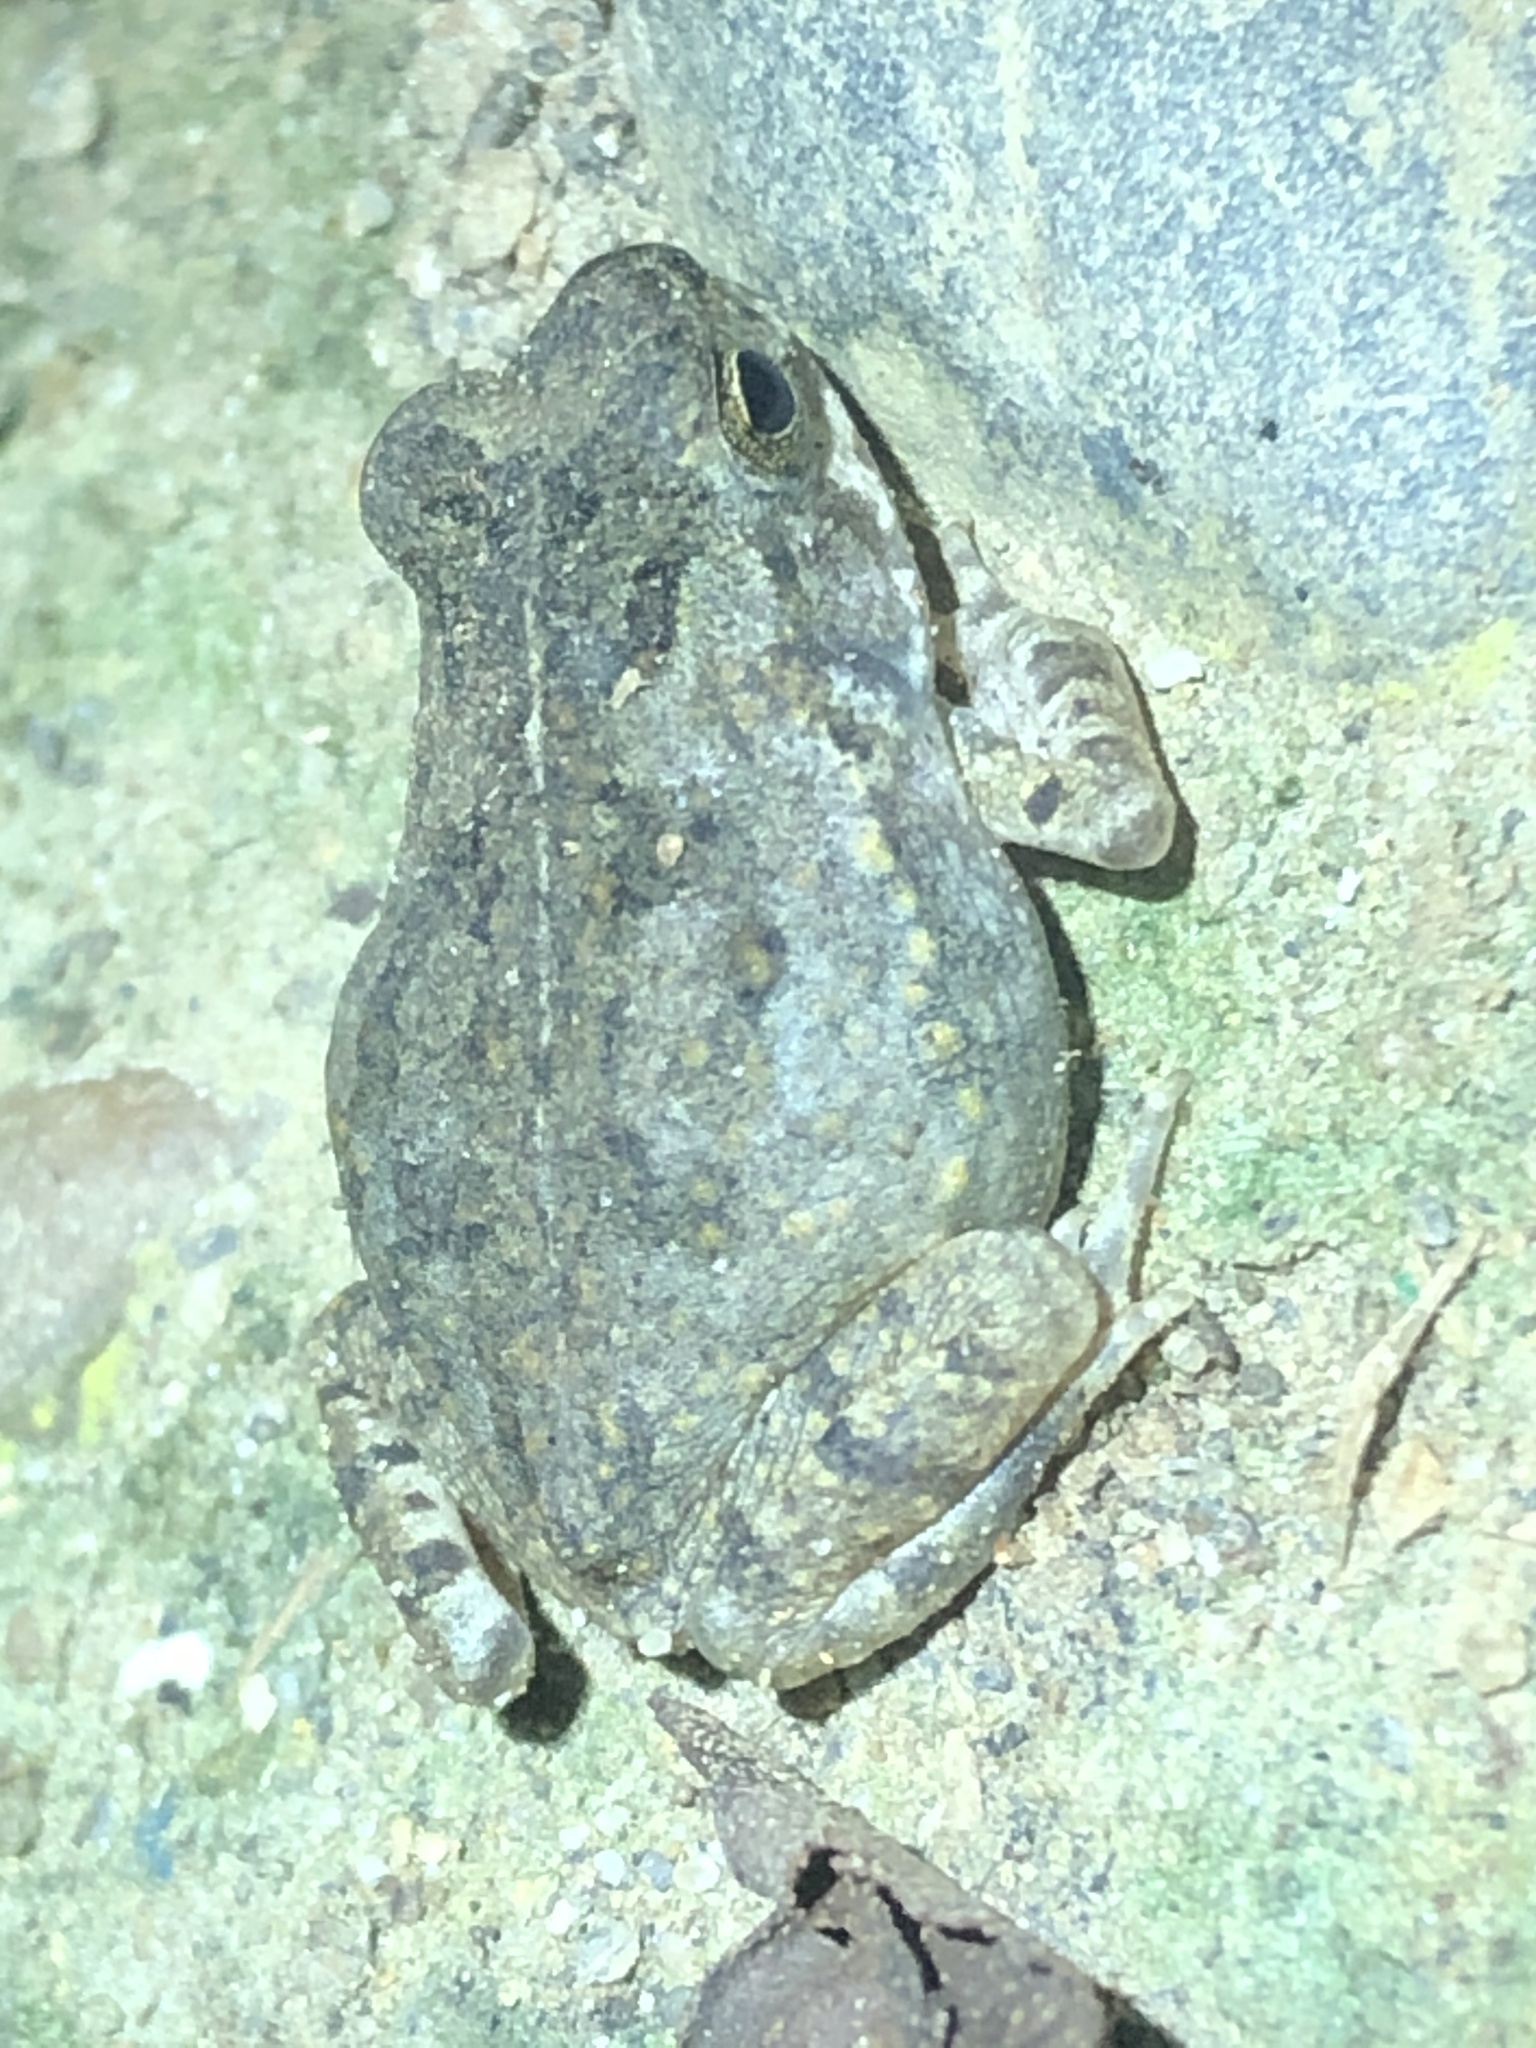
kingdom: Animalia
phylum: Chordata
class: Amphibia
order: Anura
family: Bufonidae
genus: Rhinella
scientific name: Rhinella marina
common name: Cane toad
